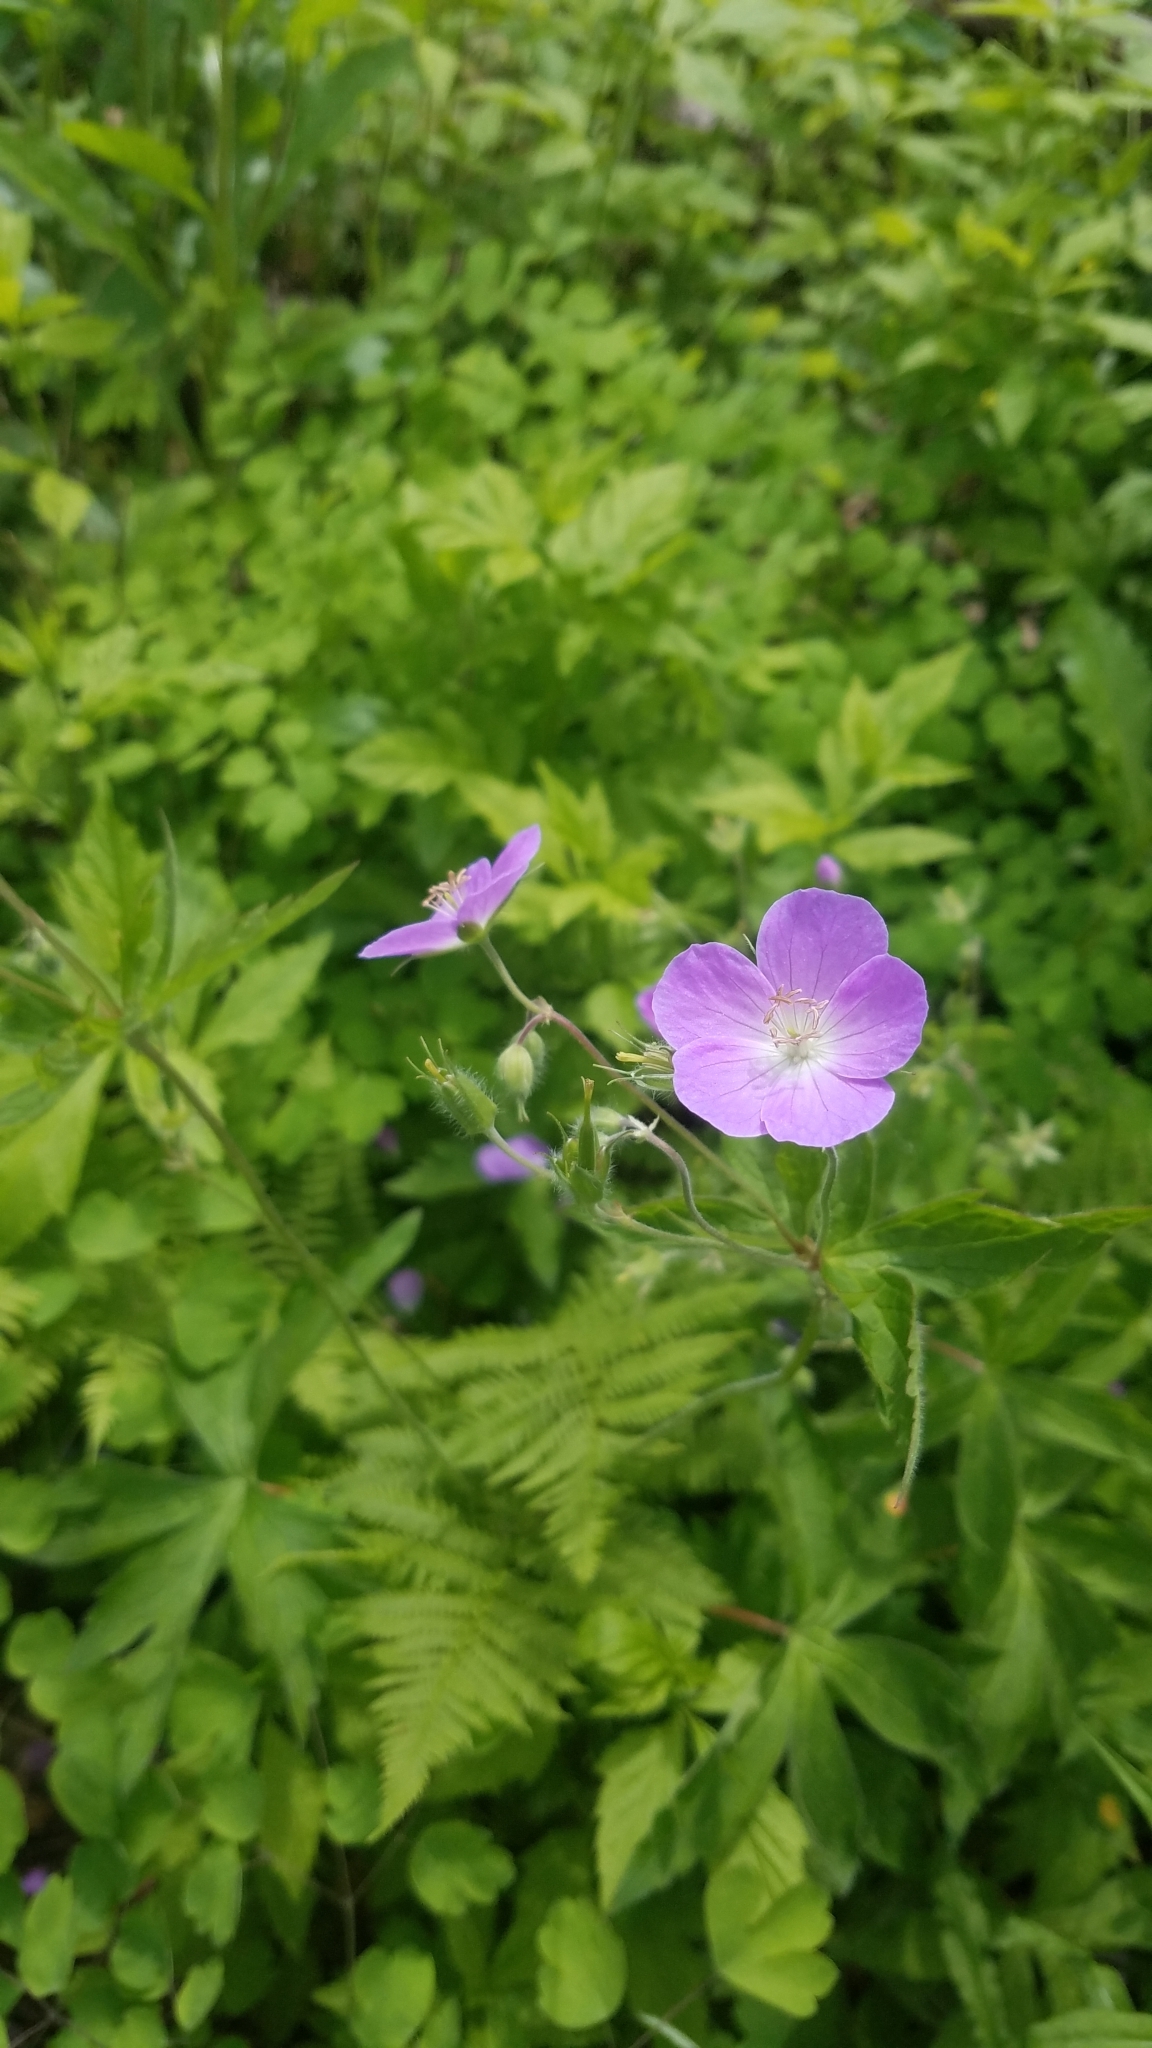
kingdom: Plantae
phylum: Tracheophyta
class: Magnoliopsida
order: Geraniales
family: Geraniaceae
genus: Geranium
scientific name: Geranium maculatum
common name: Spotted geranium
